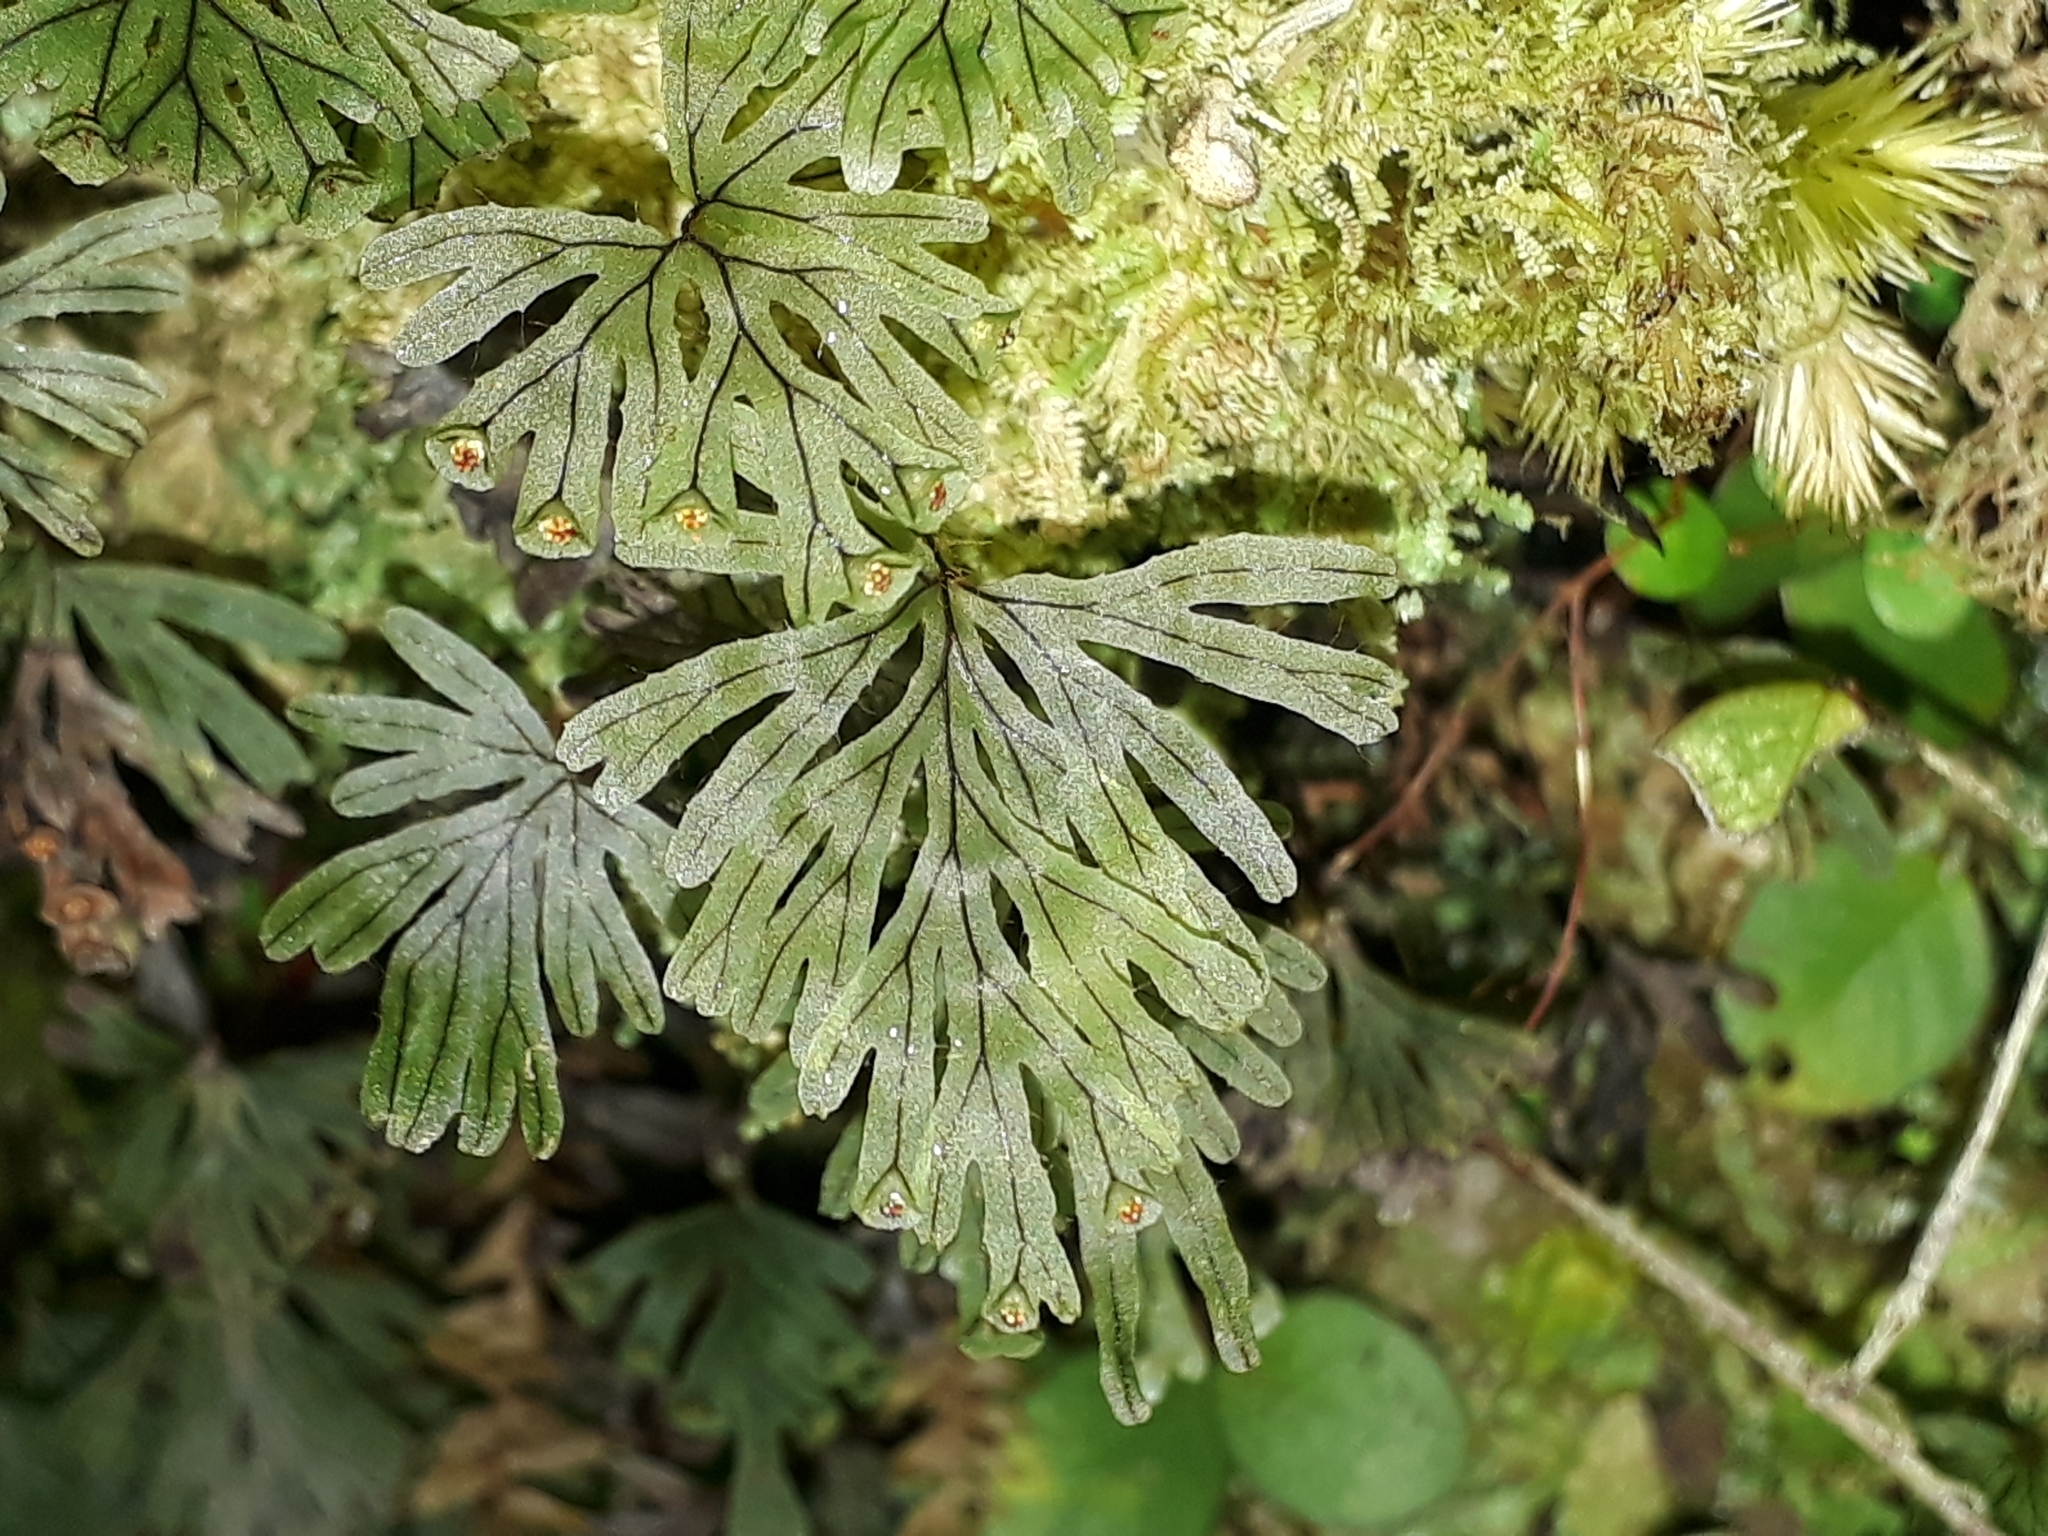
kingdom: Plantae
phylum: Tracheophyta
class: Polypodiopsida
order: Hymenophyllales
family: Hymenophyllaceae
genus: Hymenophyllum
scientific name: Hymenophyllum lyallii
